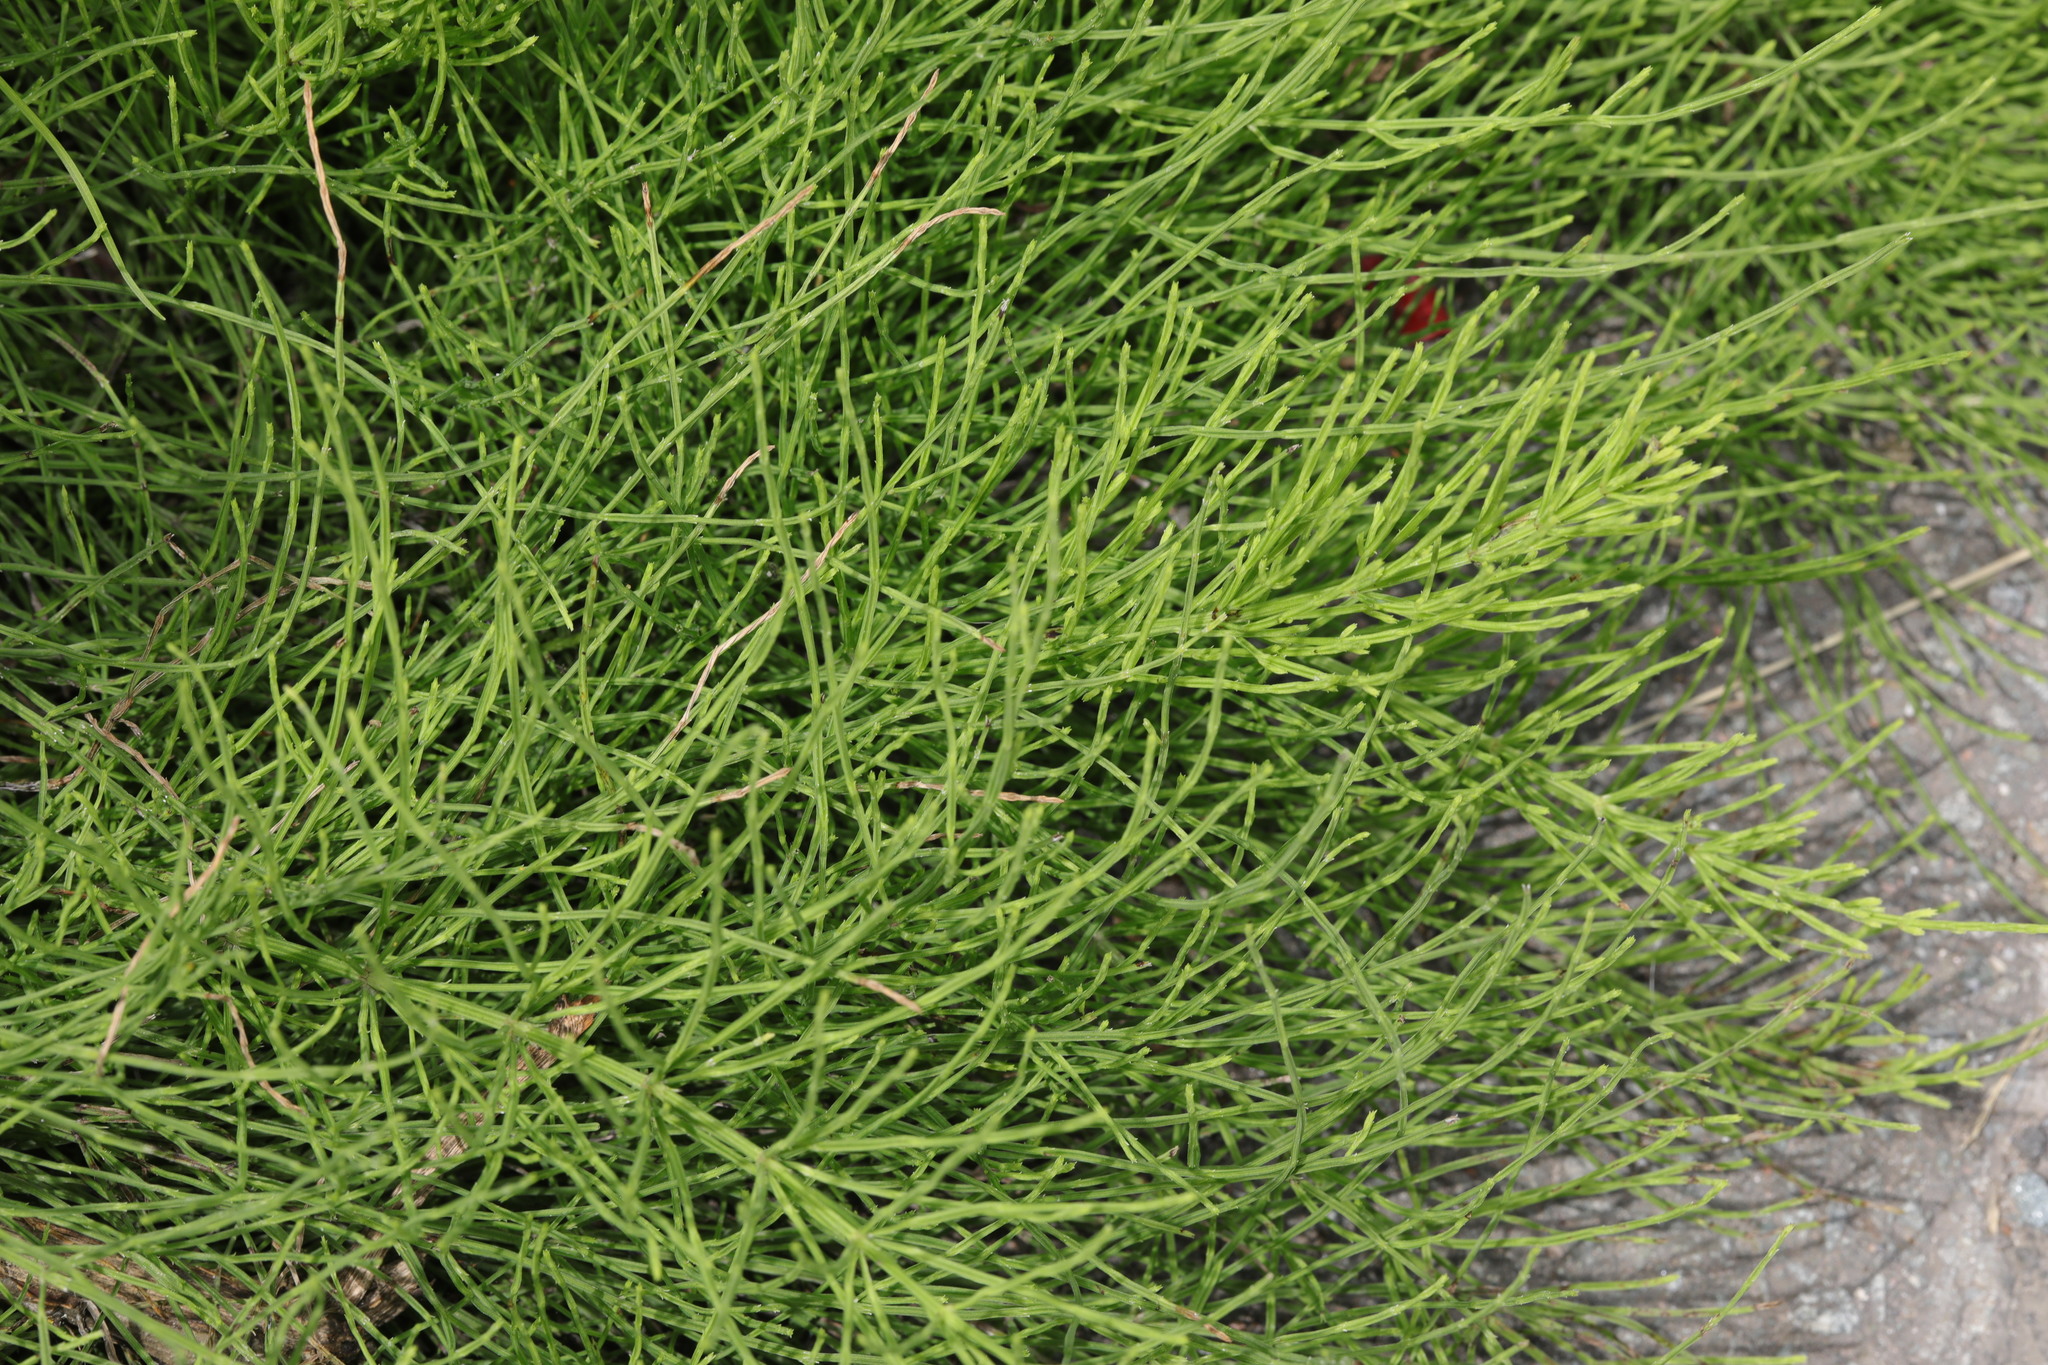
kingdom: Plantae
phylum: Tracheophyta
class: Polypodiopsida
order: Equisetales
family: Equisetaceae
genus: Equisetum
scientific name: Equisetum arvense
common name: Field horsetail
